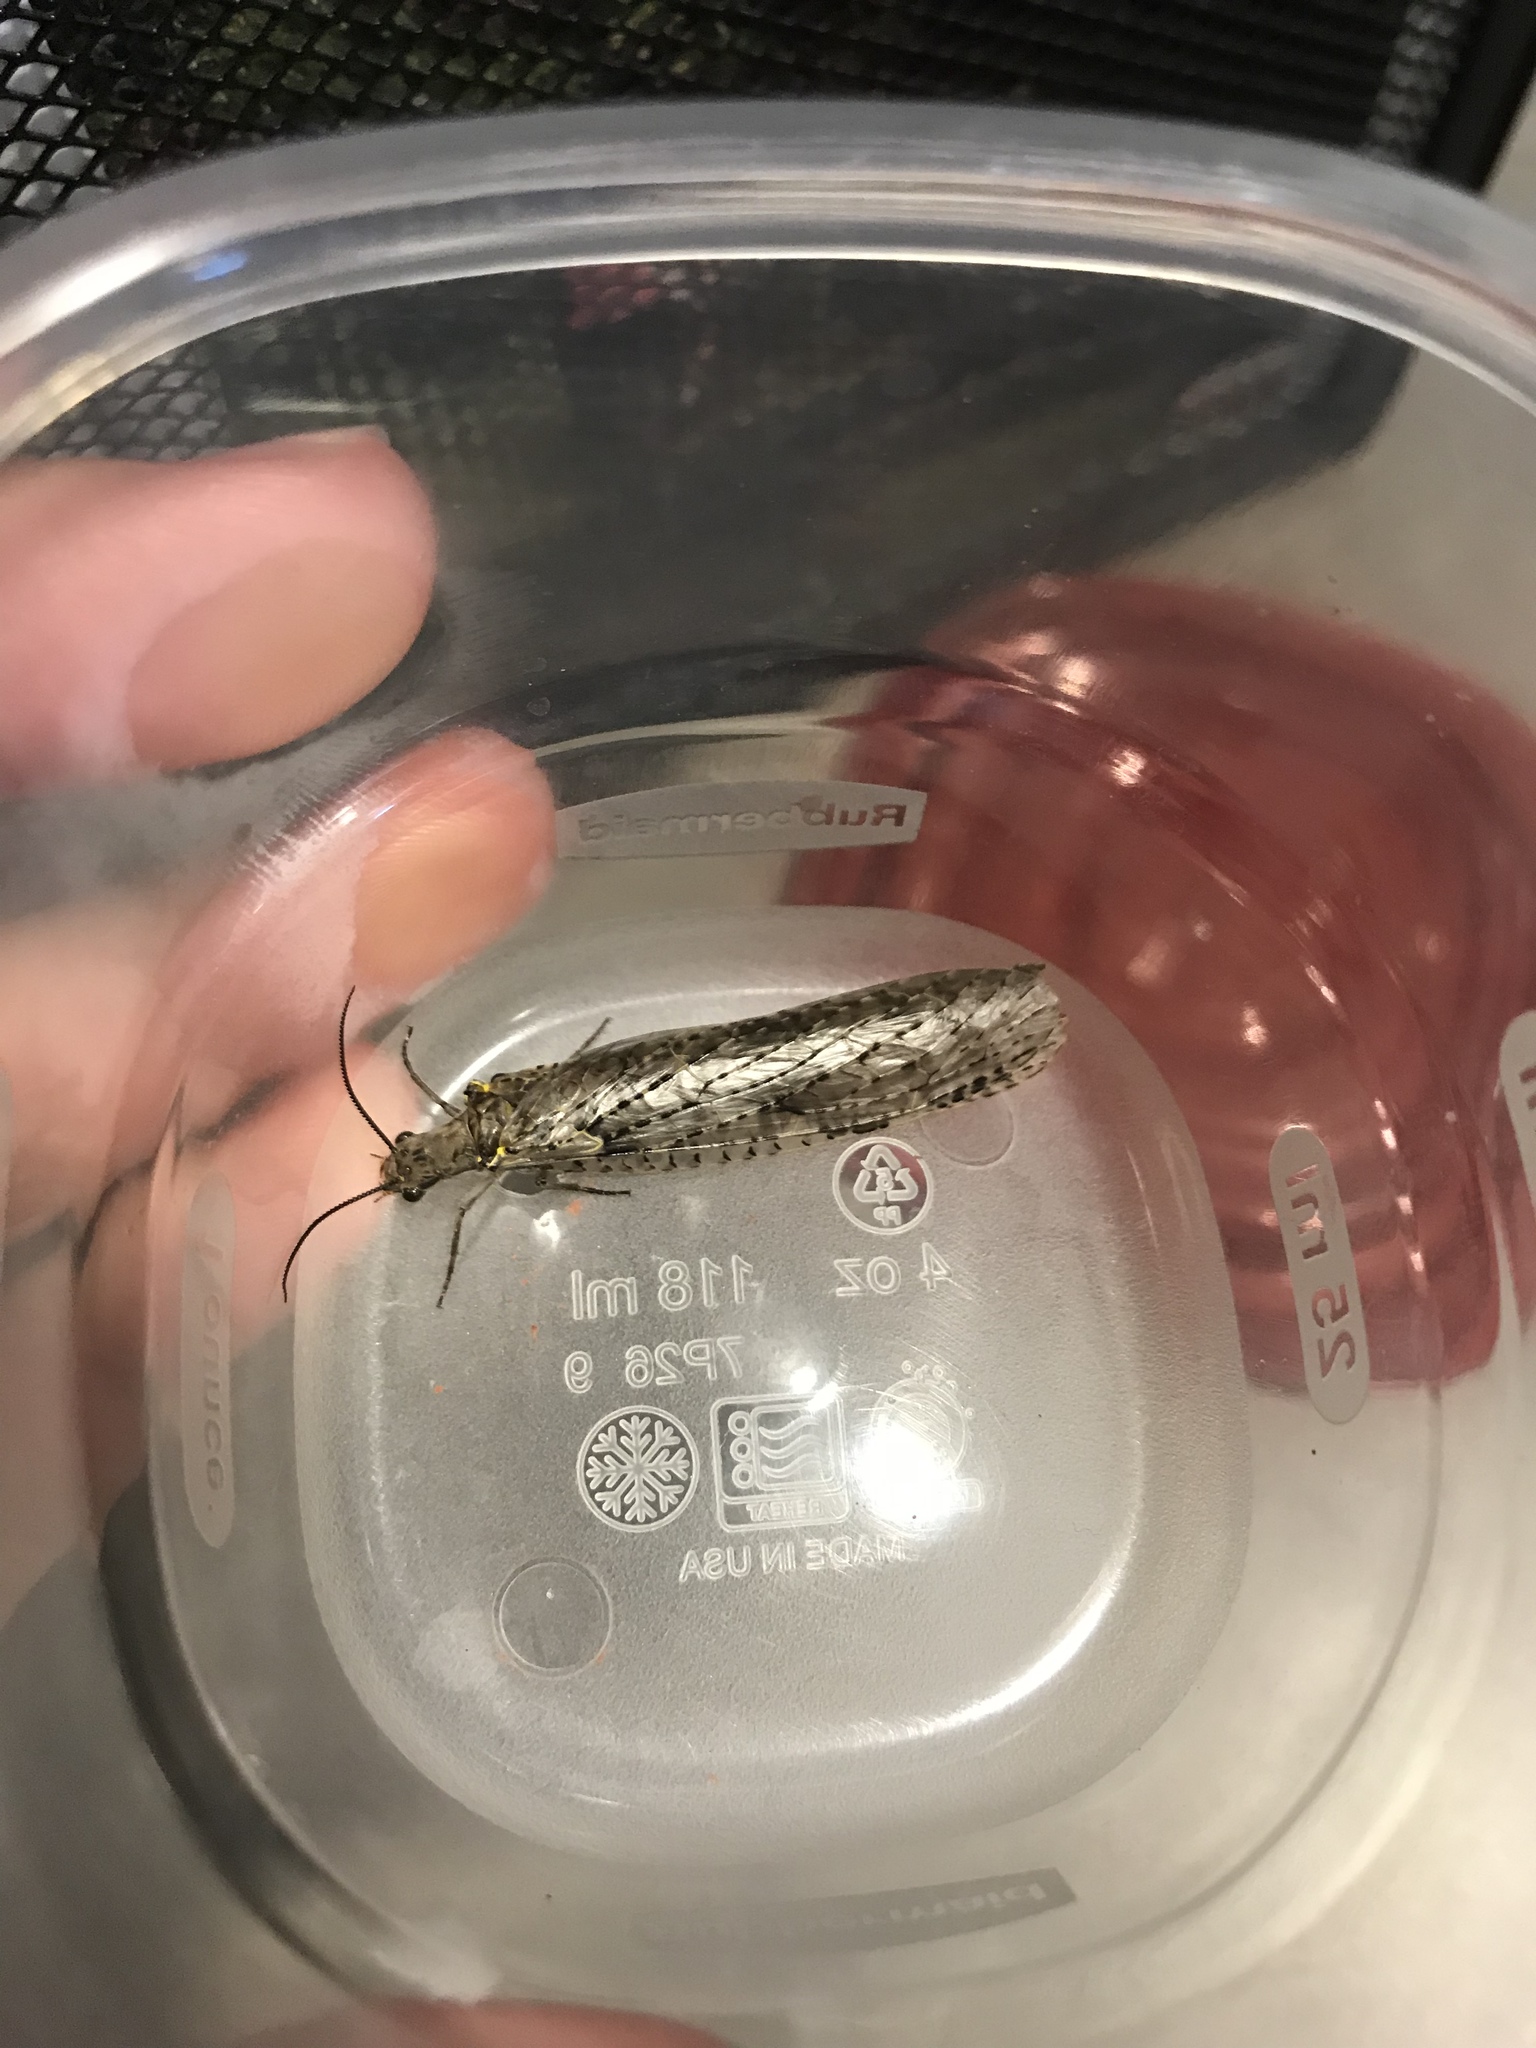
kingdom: Animalia
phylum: Arthropoda
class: Insecta
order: Megaloptera
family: Corydalidae
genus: Chauliodes
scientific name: Chauliodes rastricornis
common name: Spring fishfly
